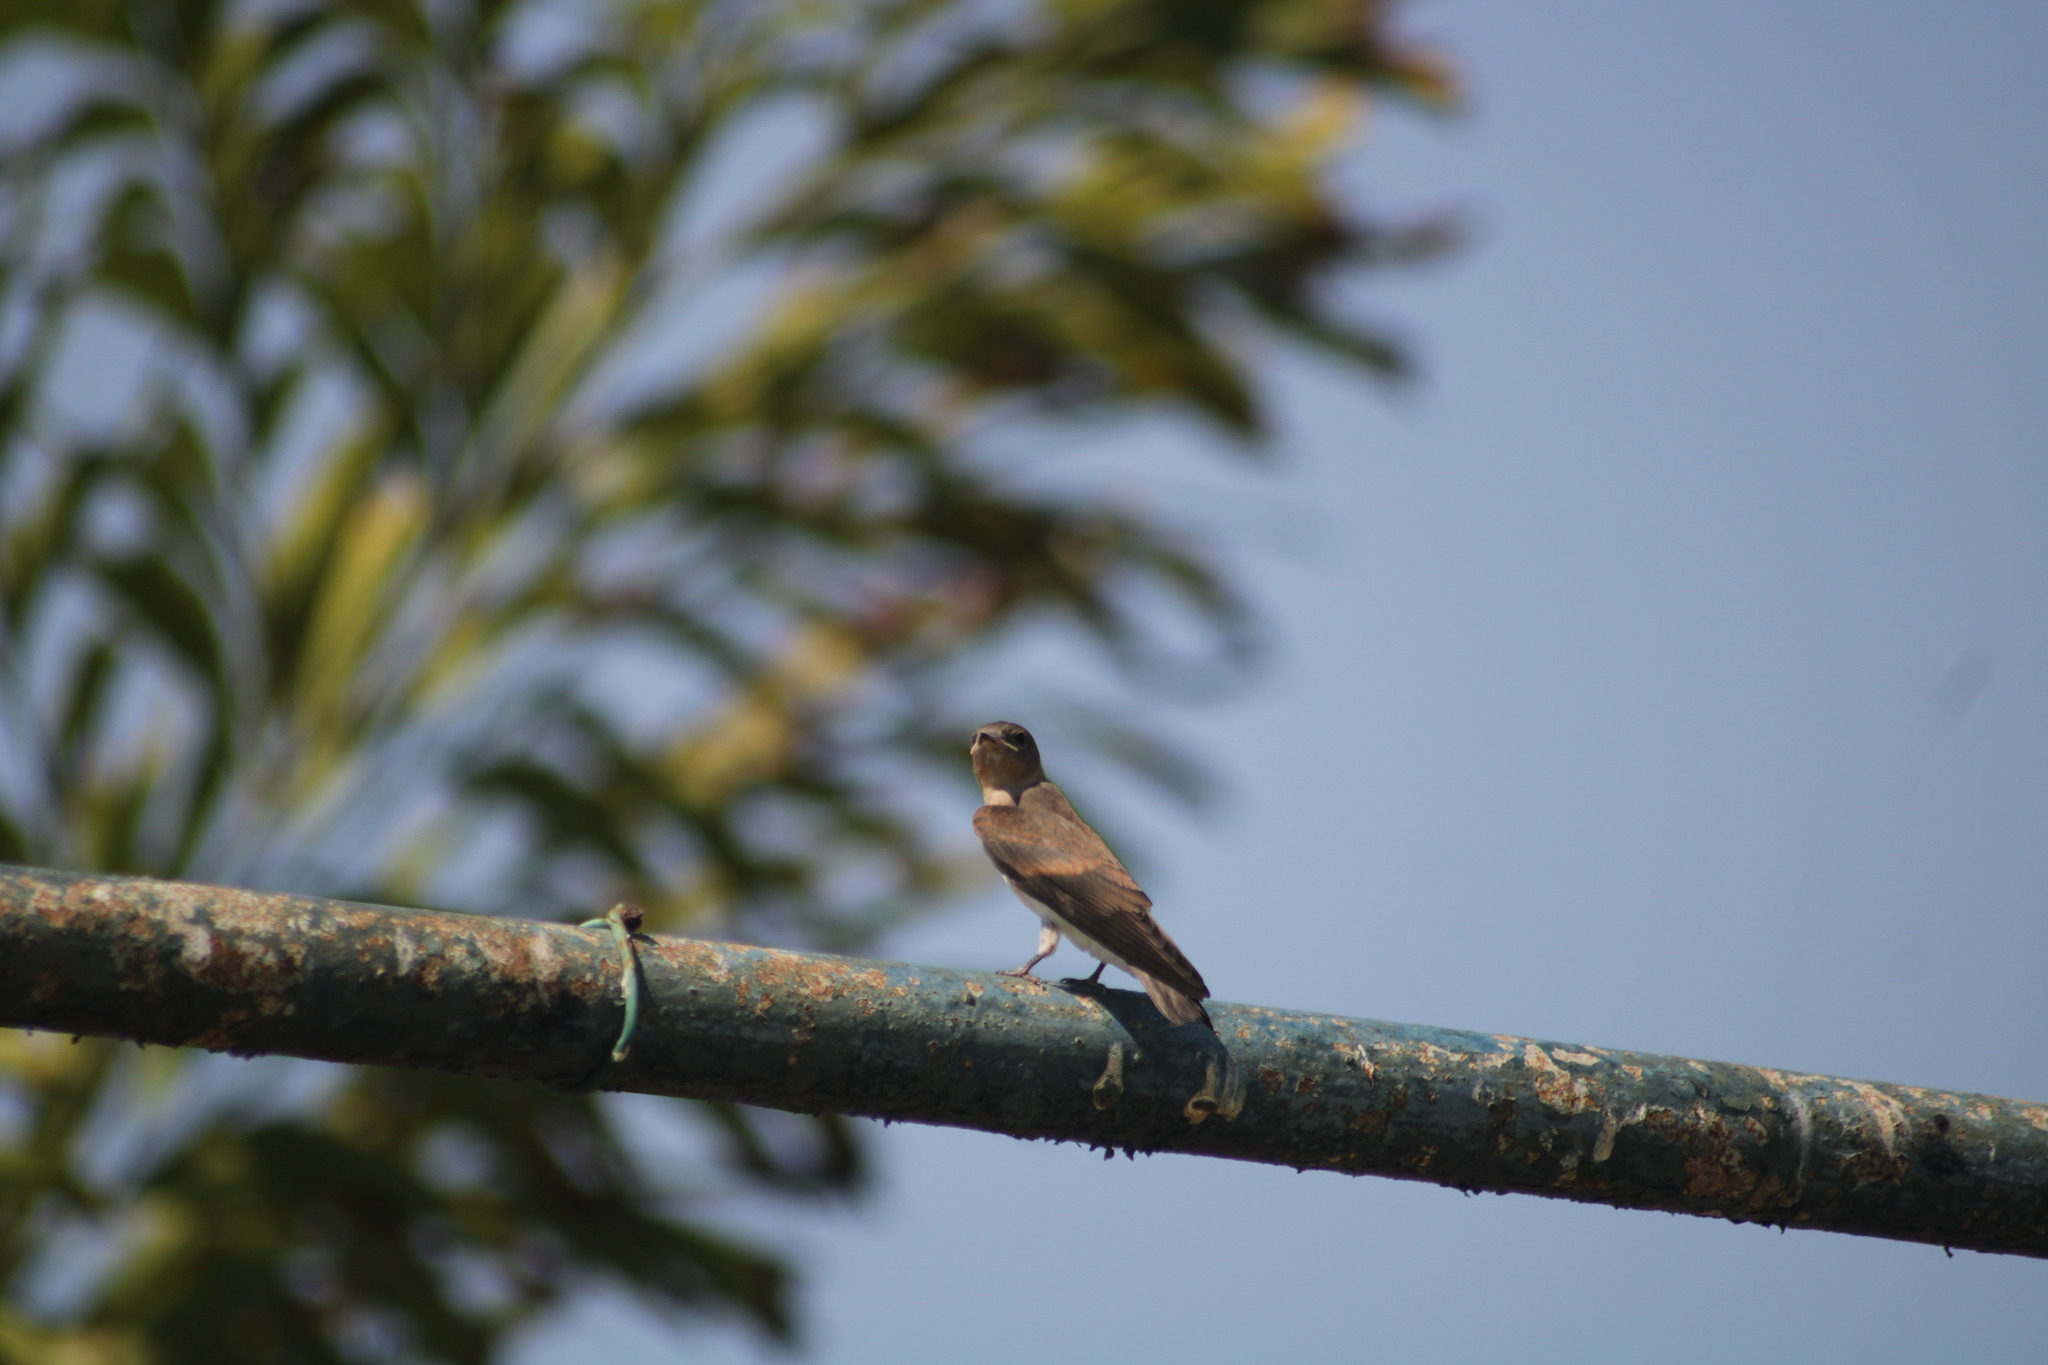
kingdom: Animalia
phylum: Chordata
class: Aves
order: Passeriformes
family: Hirundinidae
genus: Stelgidopteryx
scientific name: Stelgidopteryx serripennis
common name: Northern rough-winged swallow
